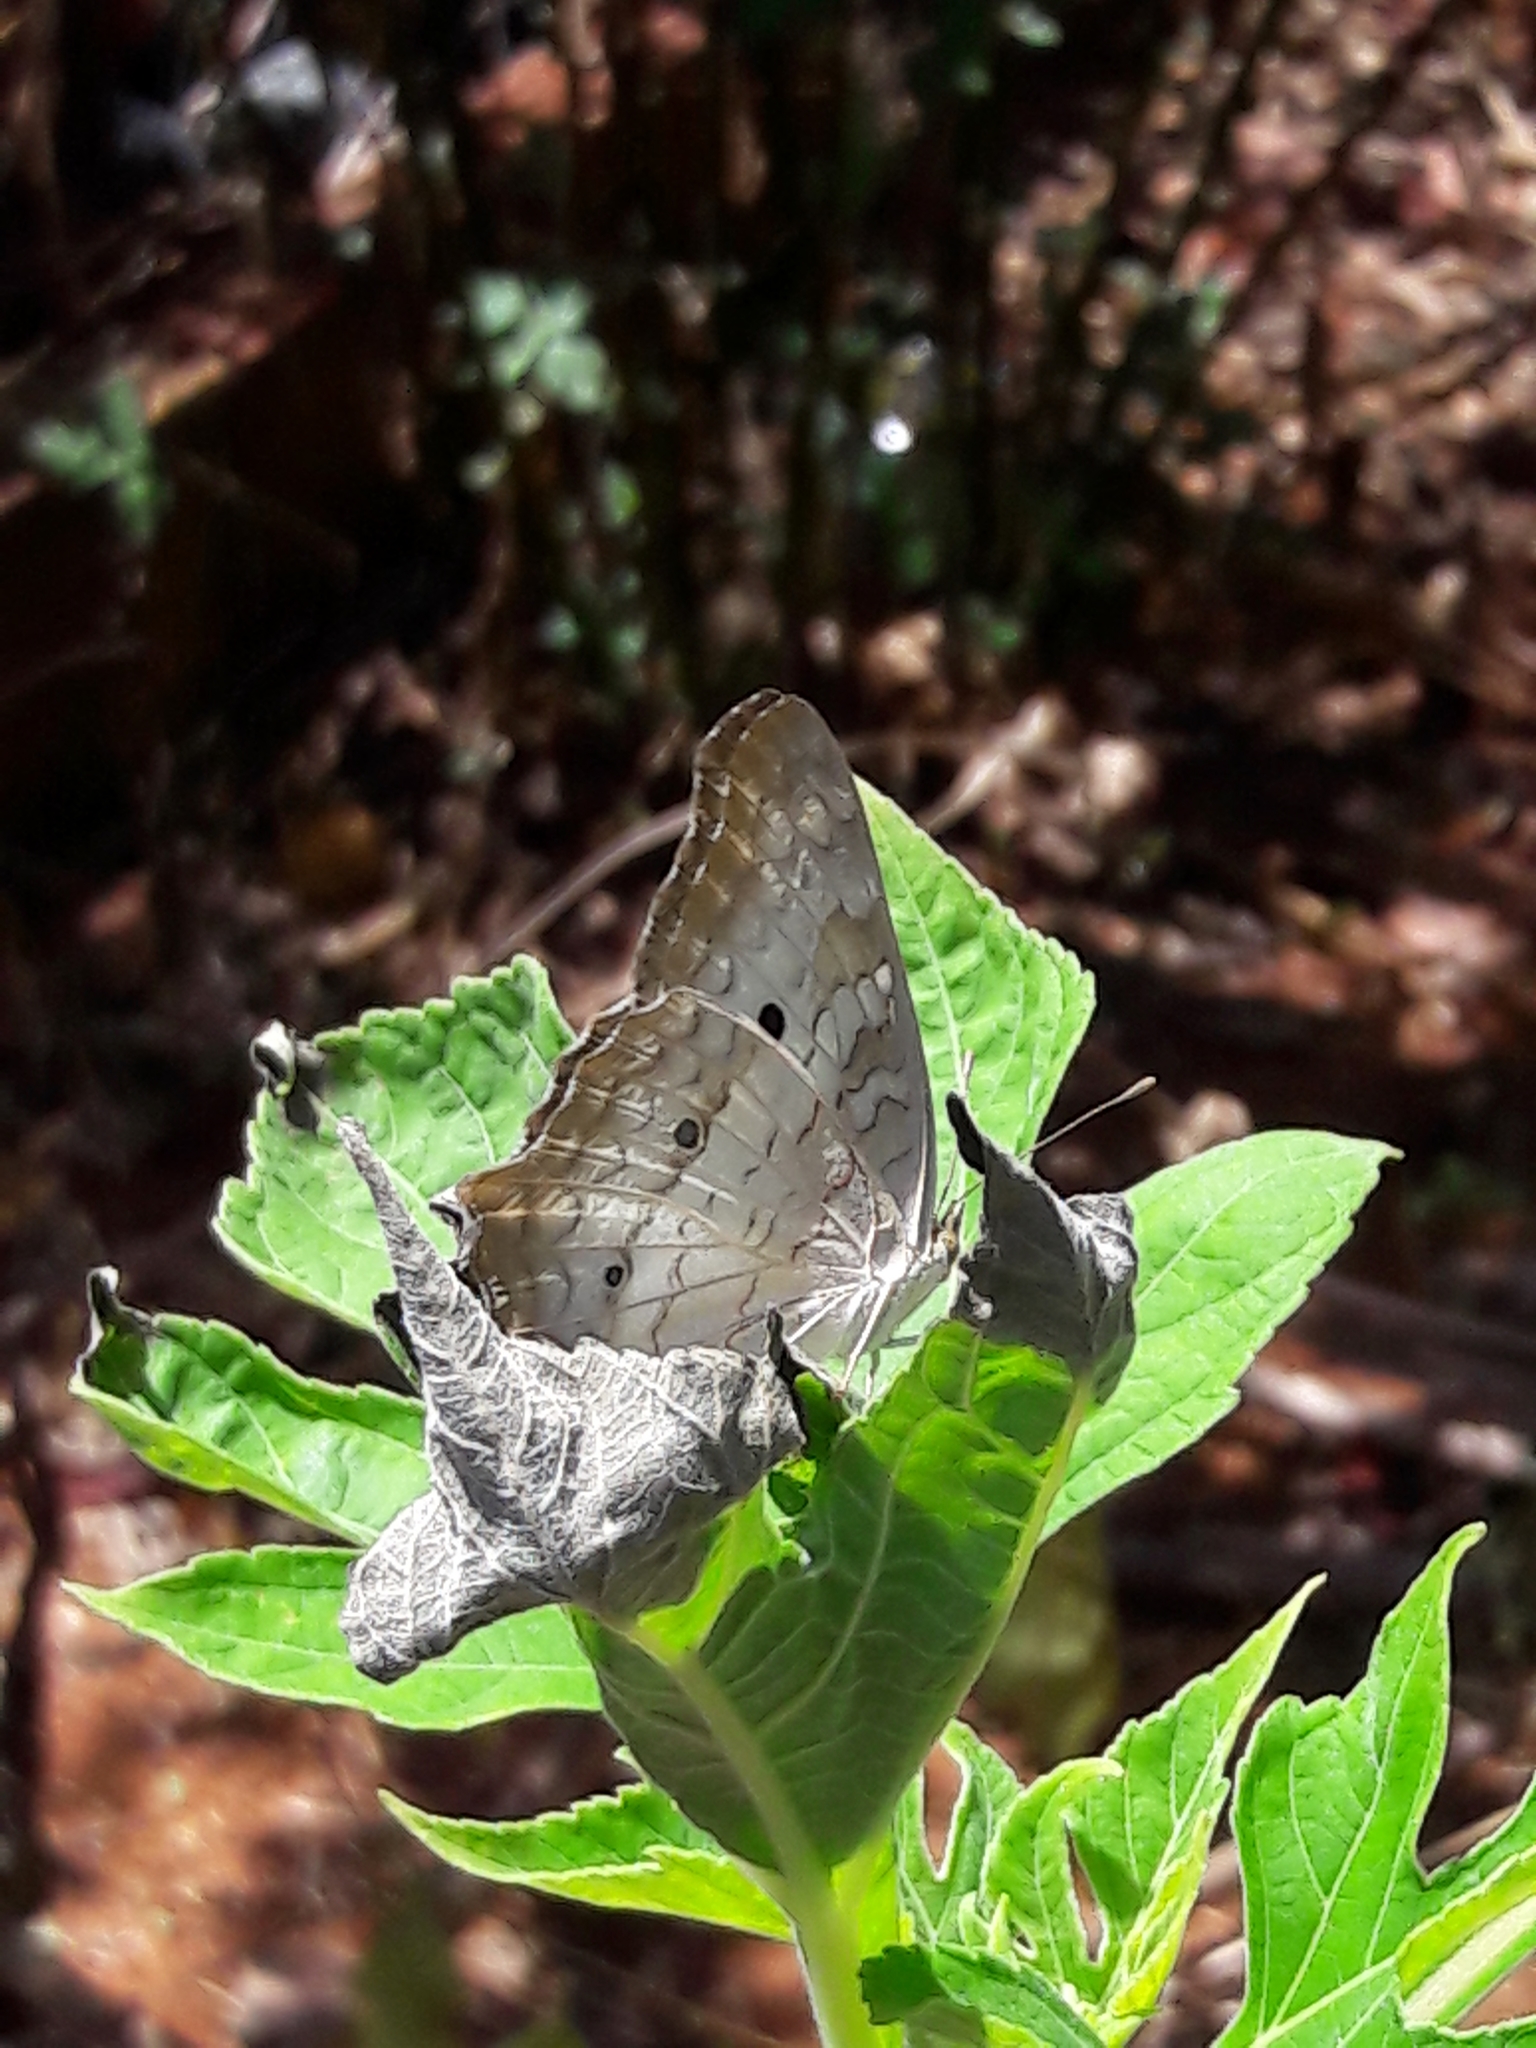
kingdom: Animalia
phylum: Arthropoda
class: Insecta
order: Lepidoptera
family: Nymphalidae
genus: Anartia
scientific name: Anartia jatrophae
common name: White peacock
